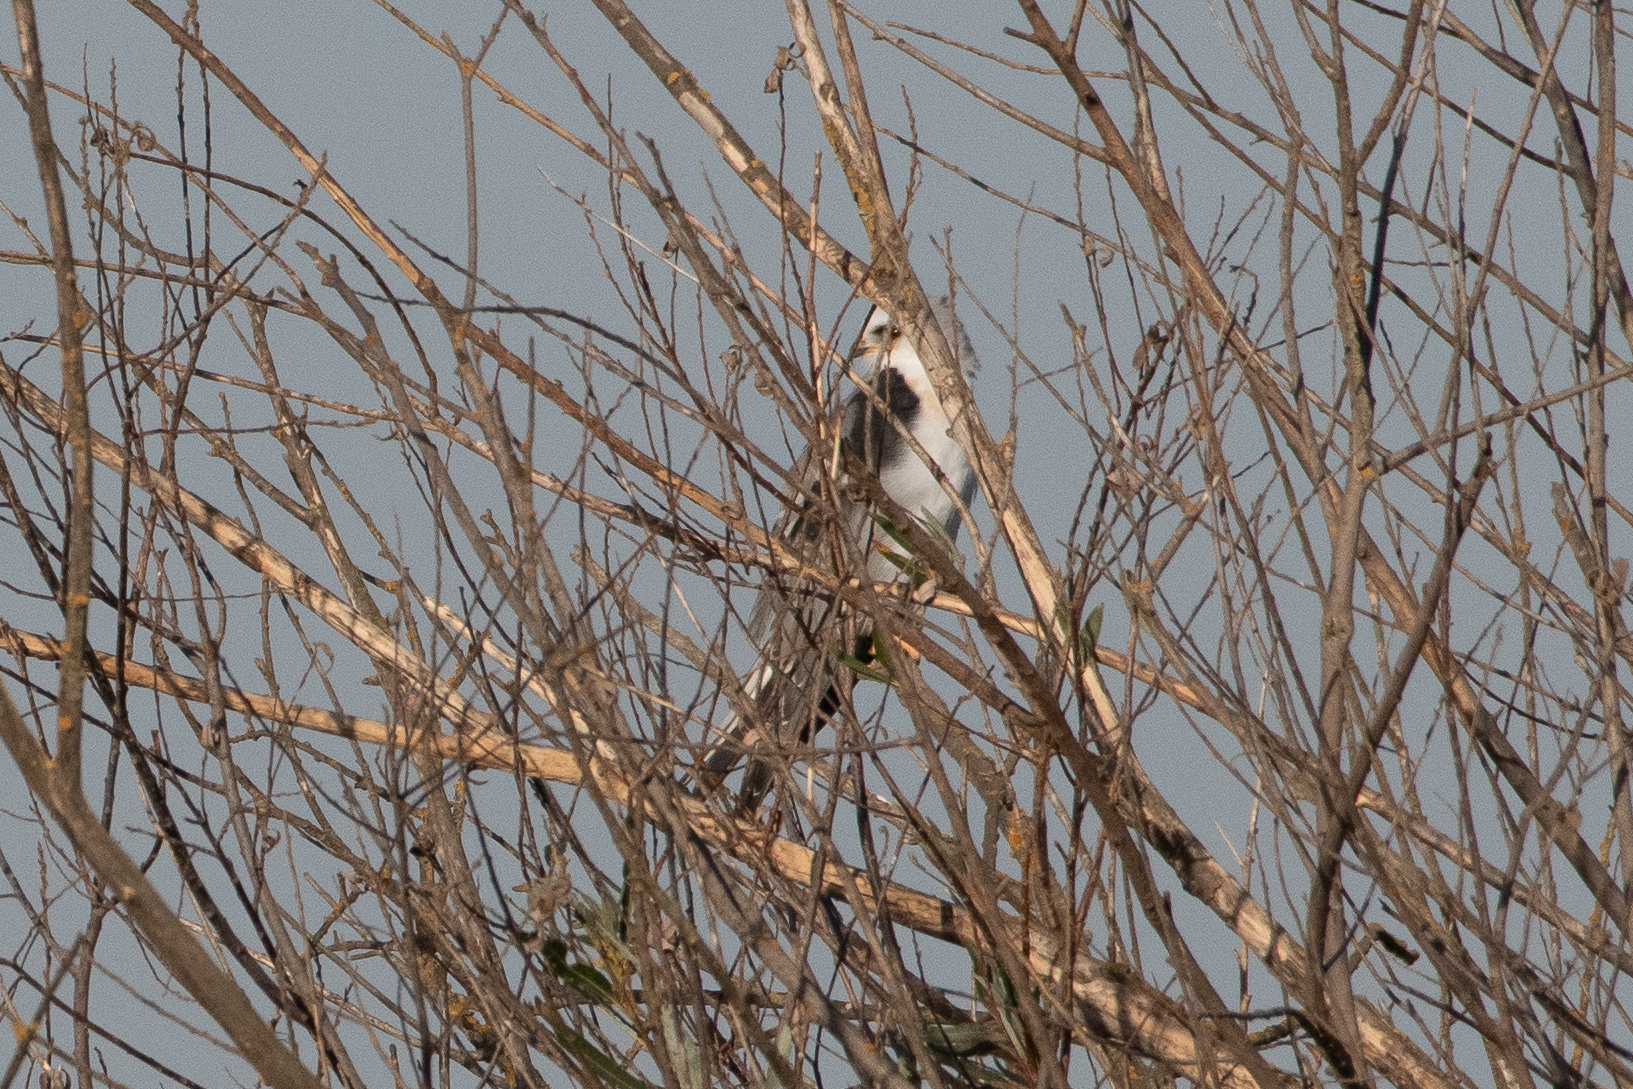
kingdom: Animalia
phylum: Chordata
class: Aves
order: Accipitriformes
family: Accipitridae
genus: Elanus
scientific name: Elanus leucurus
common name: White-tailed kite
